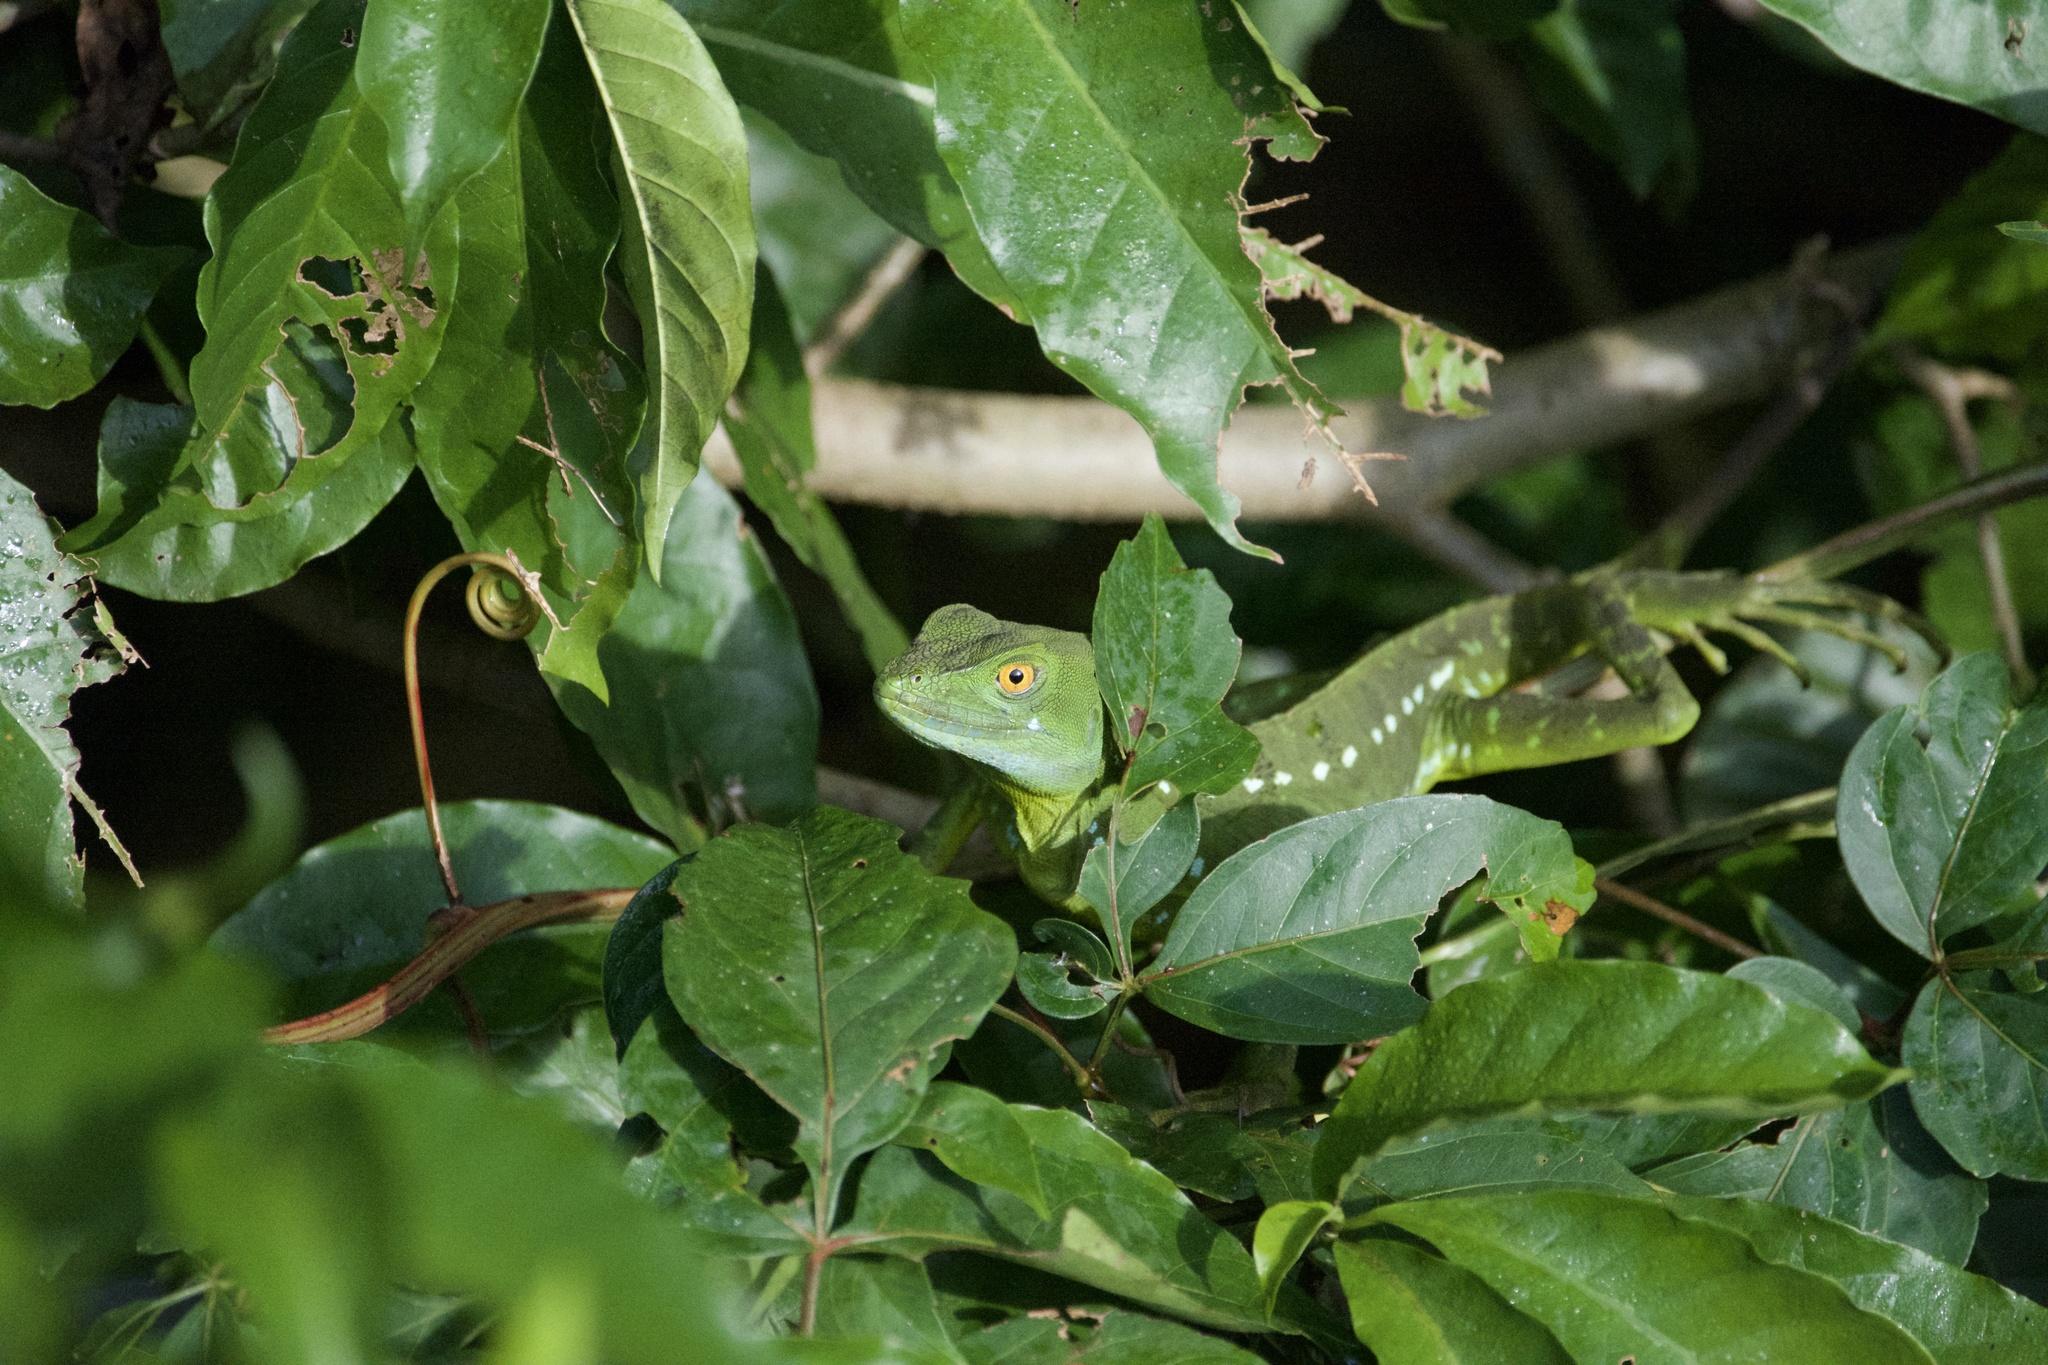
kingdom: Animalia
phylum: Chordata
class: Squamata
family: Corytophanidae
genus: Basiliscus
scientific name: Basiliscus plumifrons
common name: Green basilisk
